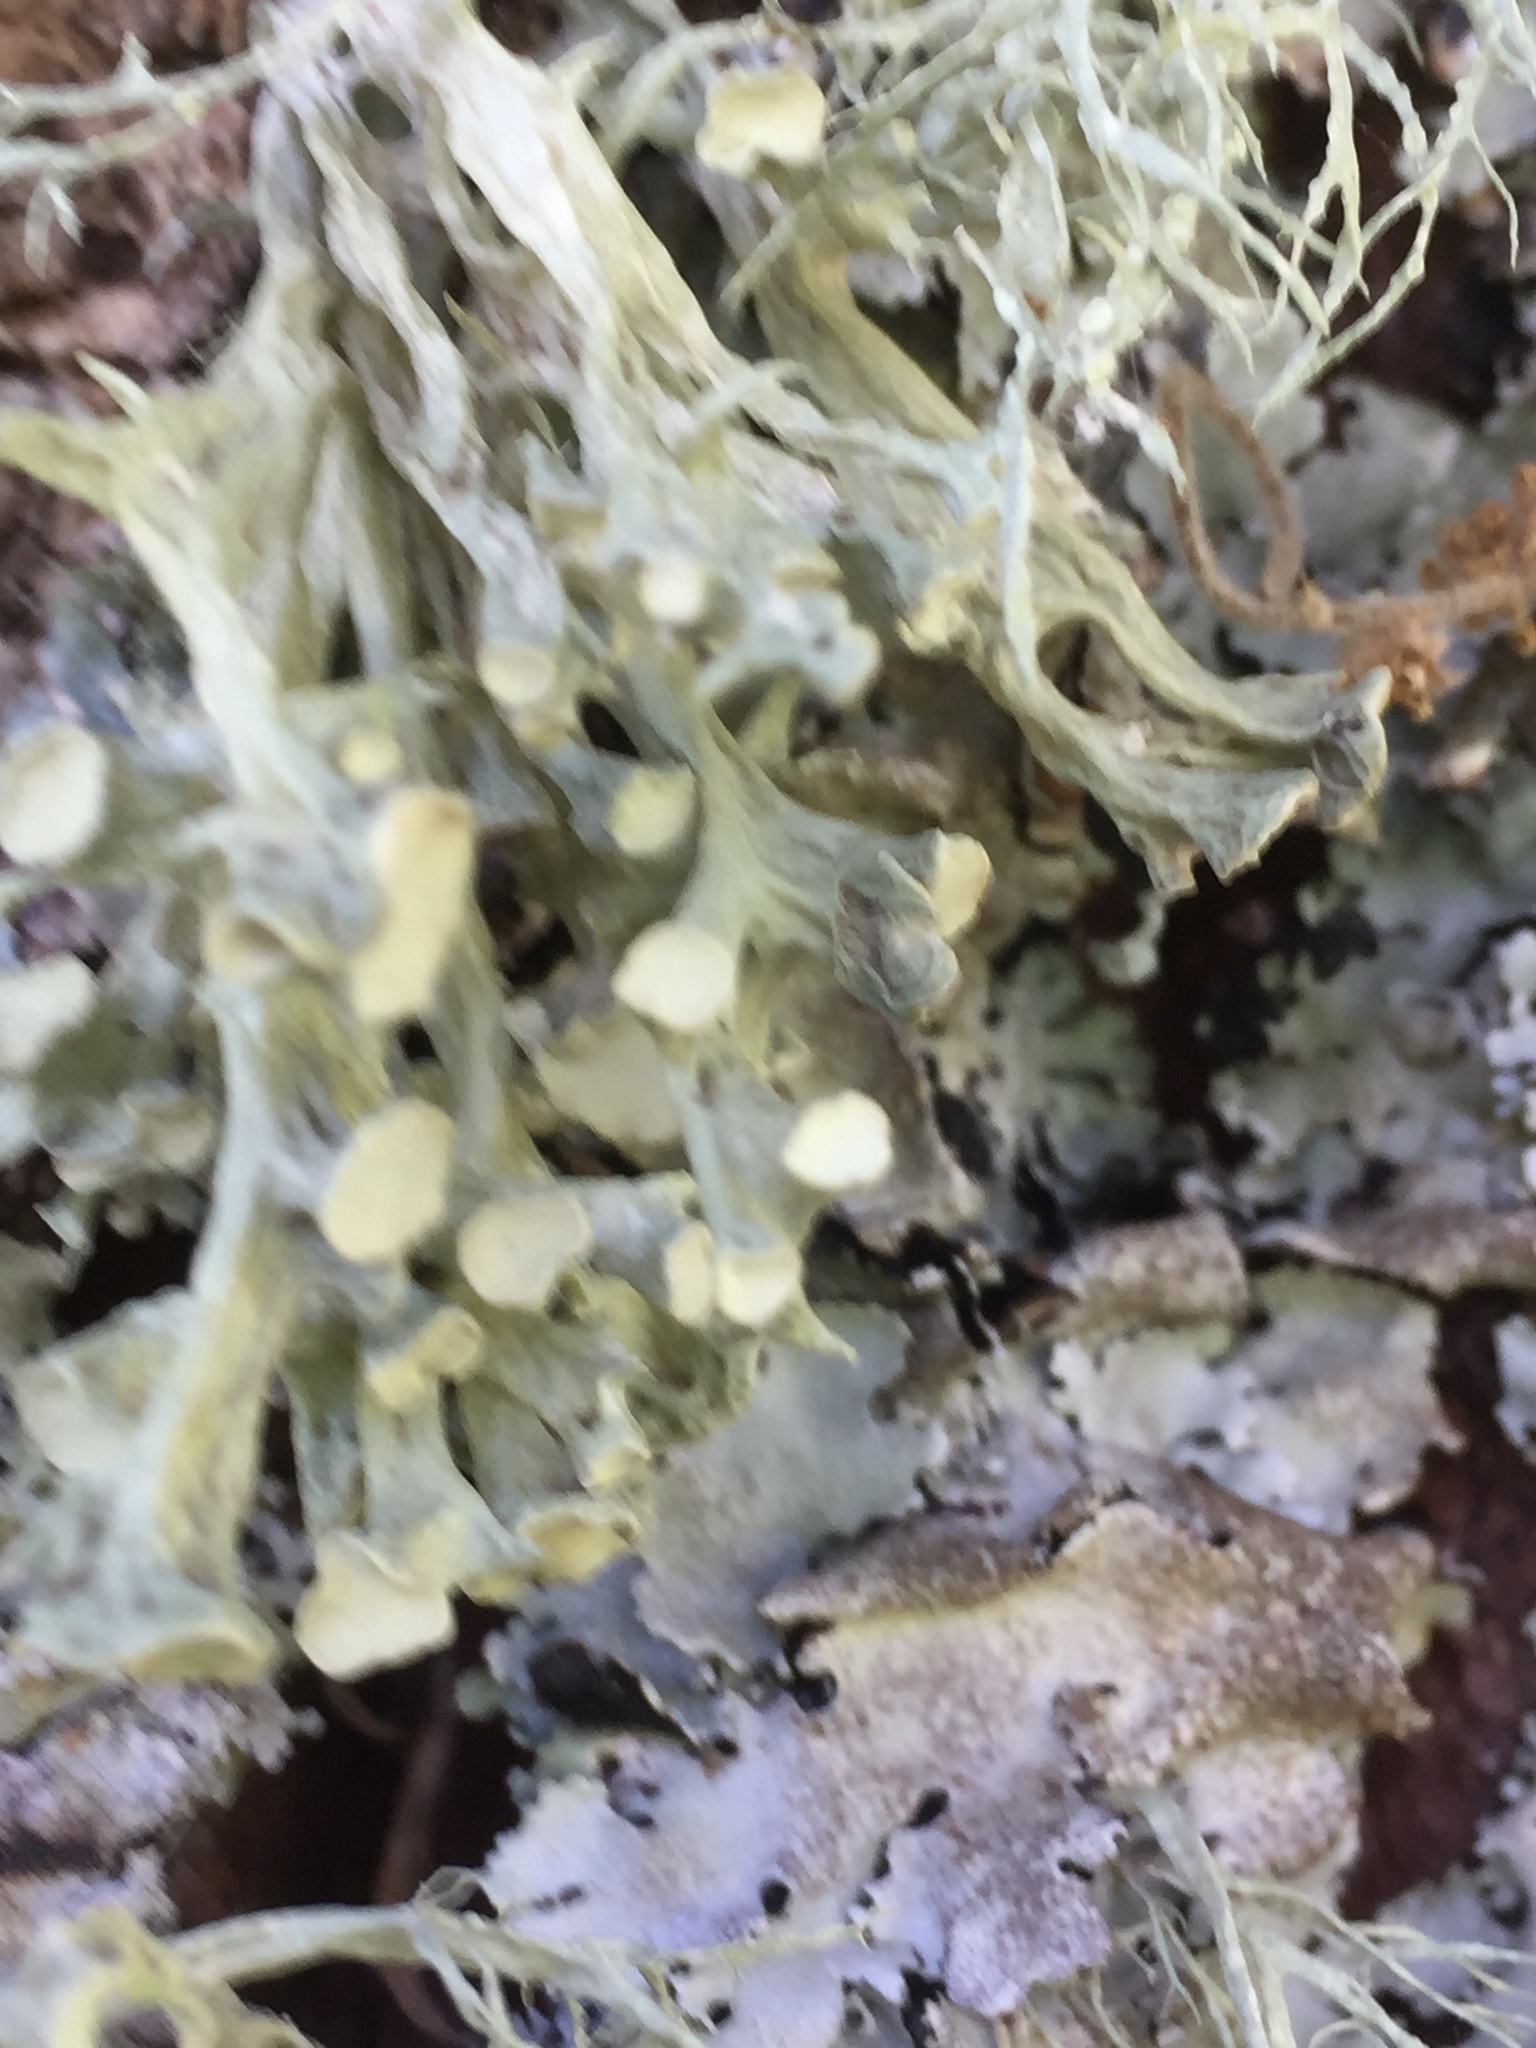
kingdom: Fungi
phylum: Ascomycota
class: Lecanoromycetes
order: Lecanorales
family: Ramalinaceae
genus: Ramalina
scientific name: Ramalina fastigiata
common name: Dotted ribbon lichen
